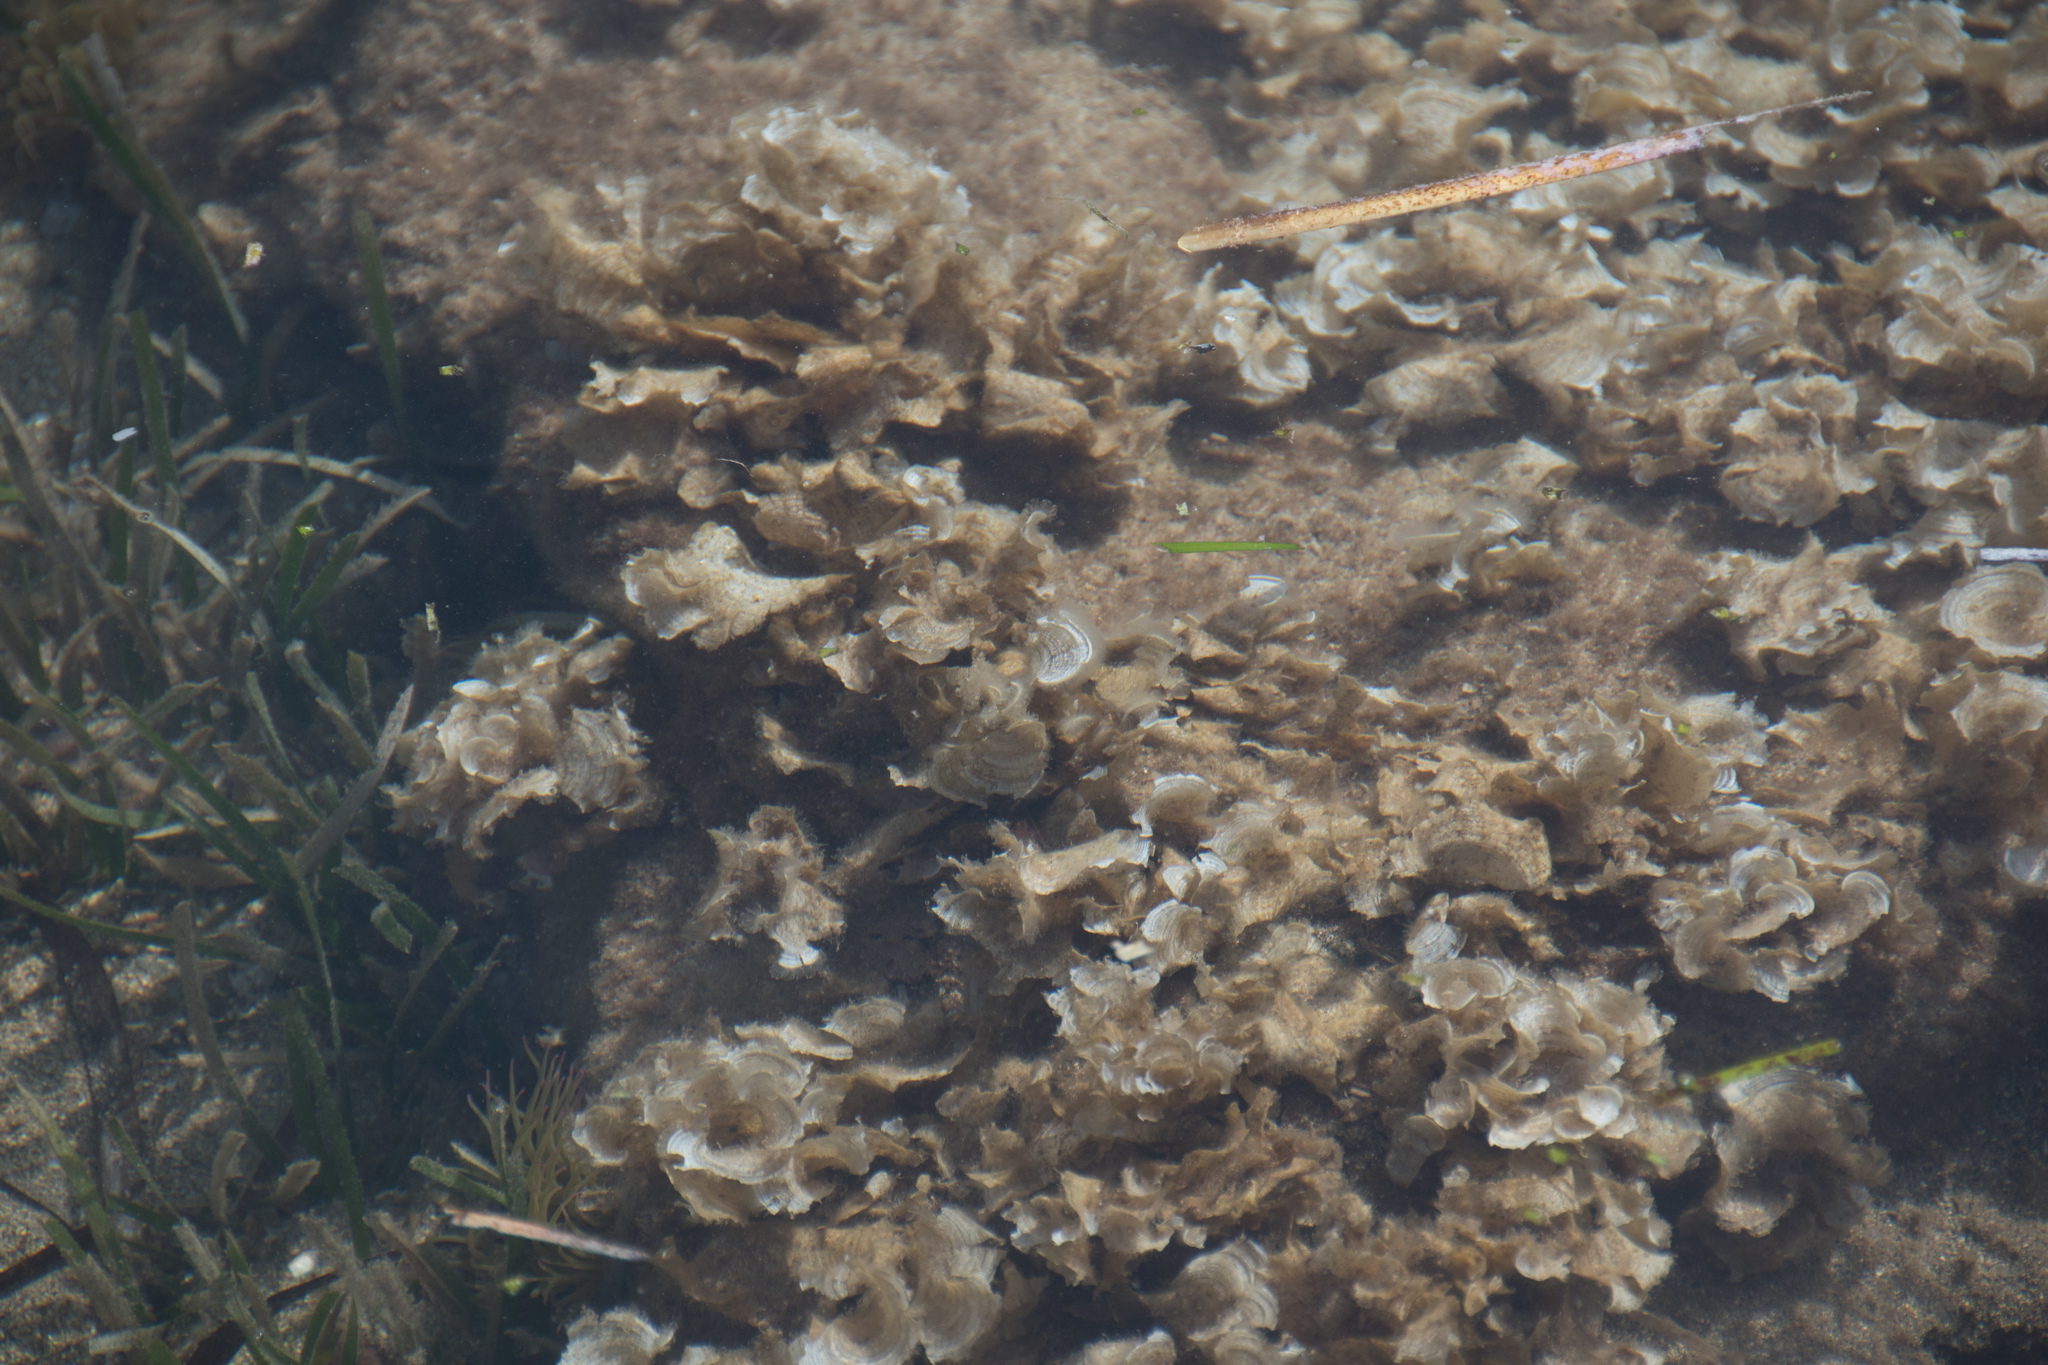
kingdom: Chromista
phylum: Ochrophyta
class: Phaeophyceae
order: Dictyotales
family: Dictyotaceae
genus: Padina
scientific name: Padina pavonica
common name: Turkey feather alga
